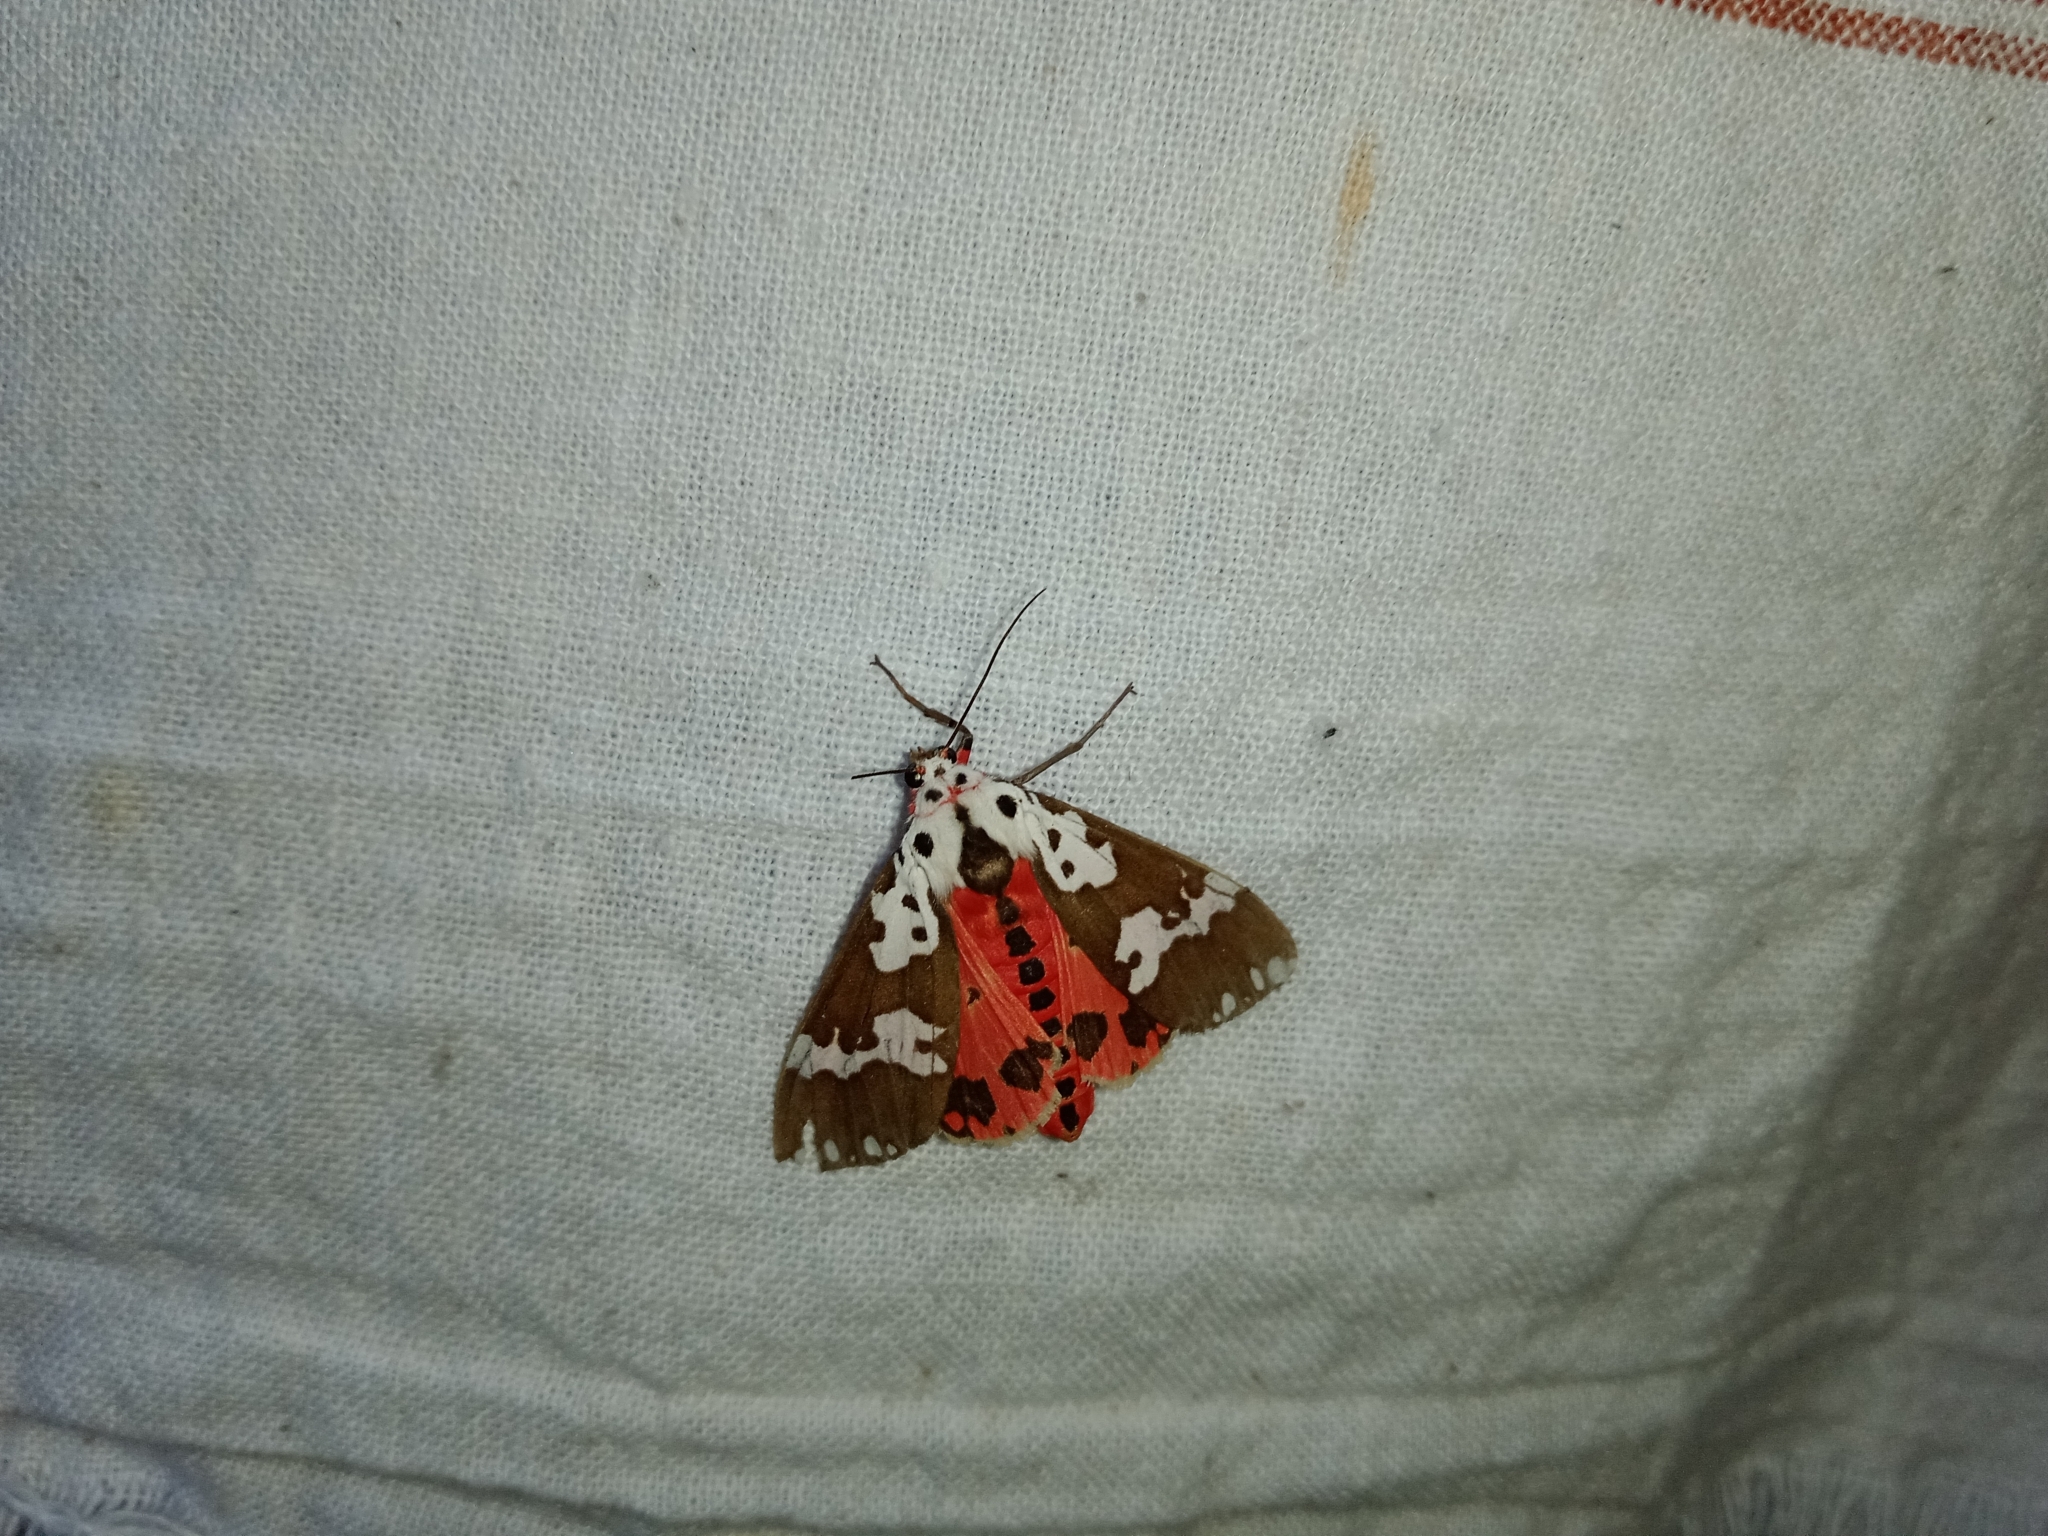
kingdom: Animalia
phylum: Arthropoda
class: Insecta
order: Lepidoptera
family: Erebidae
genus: Pericallia
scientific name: Pericallia
